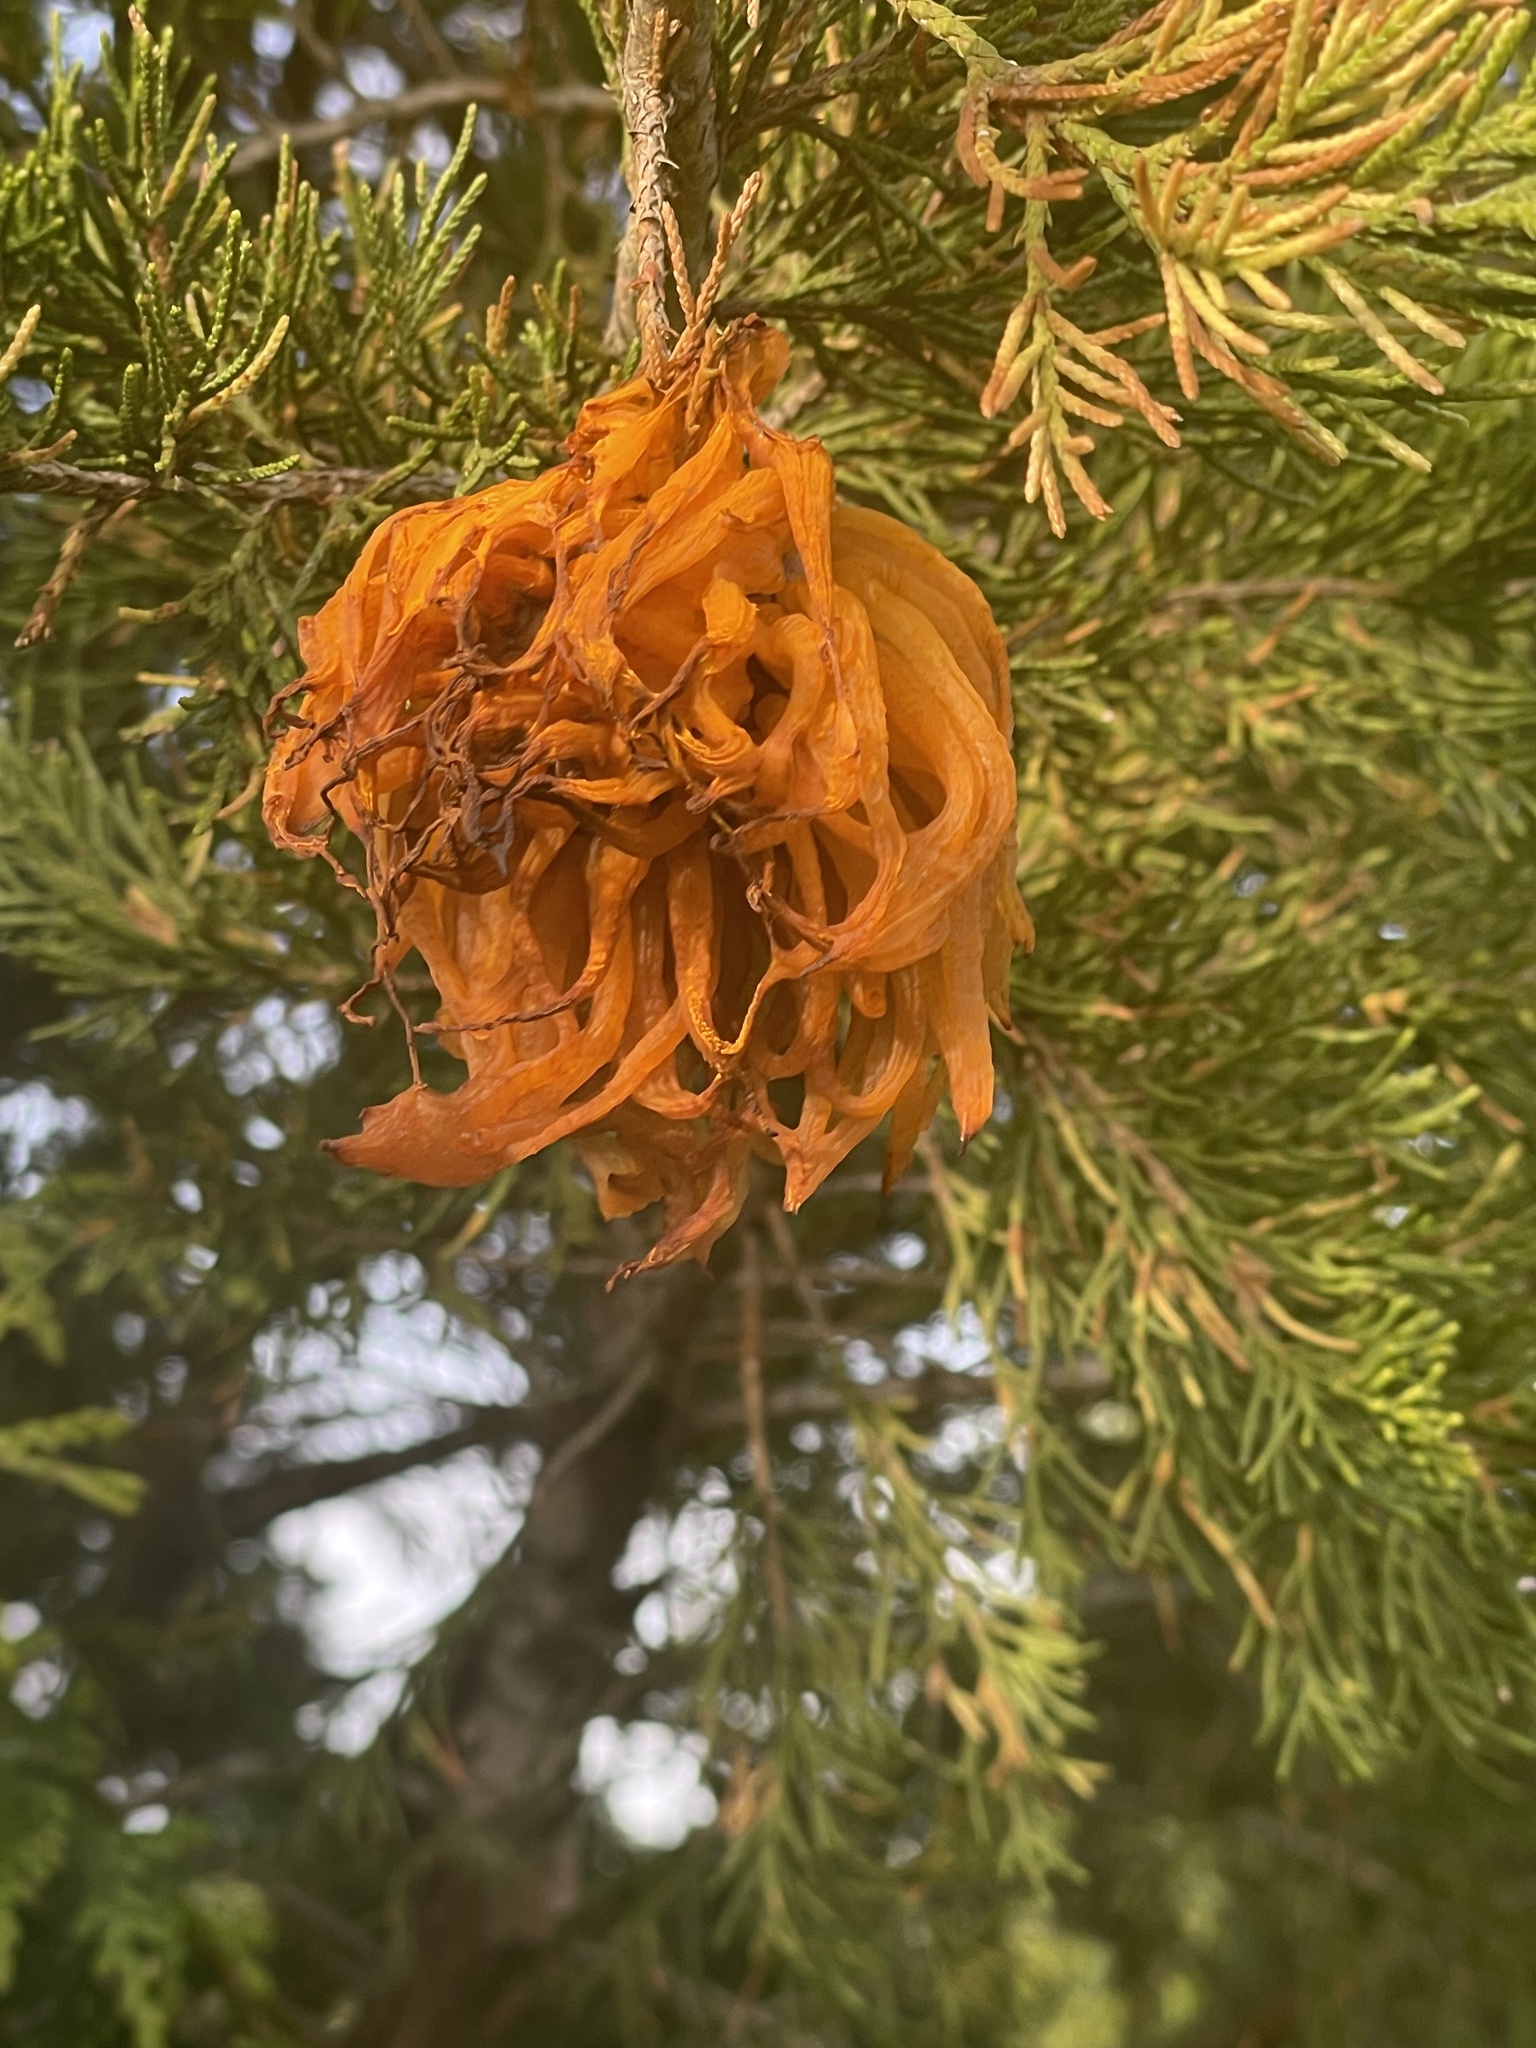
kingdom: Fungi
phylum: Basidiomycota
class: Pucciniomycetes
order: Pucciniales
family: Gymnosporangiaceae
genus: Gymnosporangium
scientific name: Gymnosporangium juniperi-virginianae
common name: Juniper-apple rust
